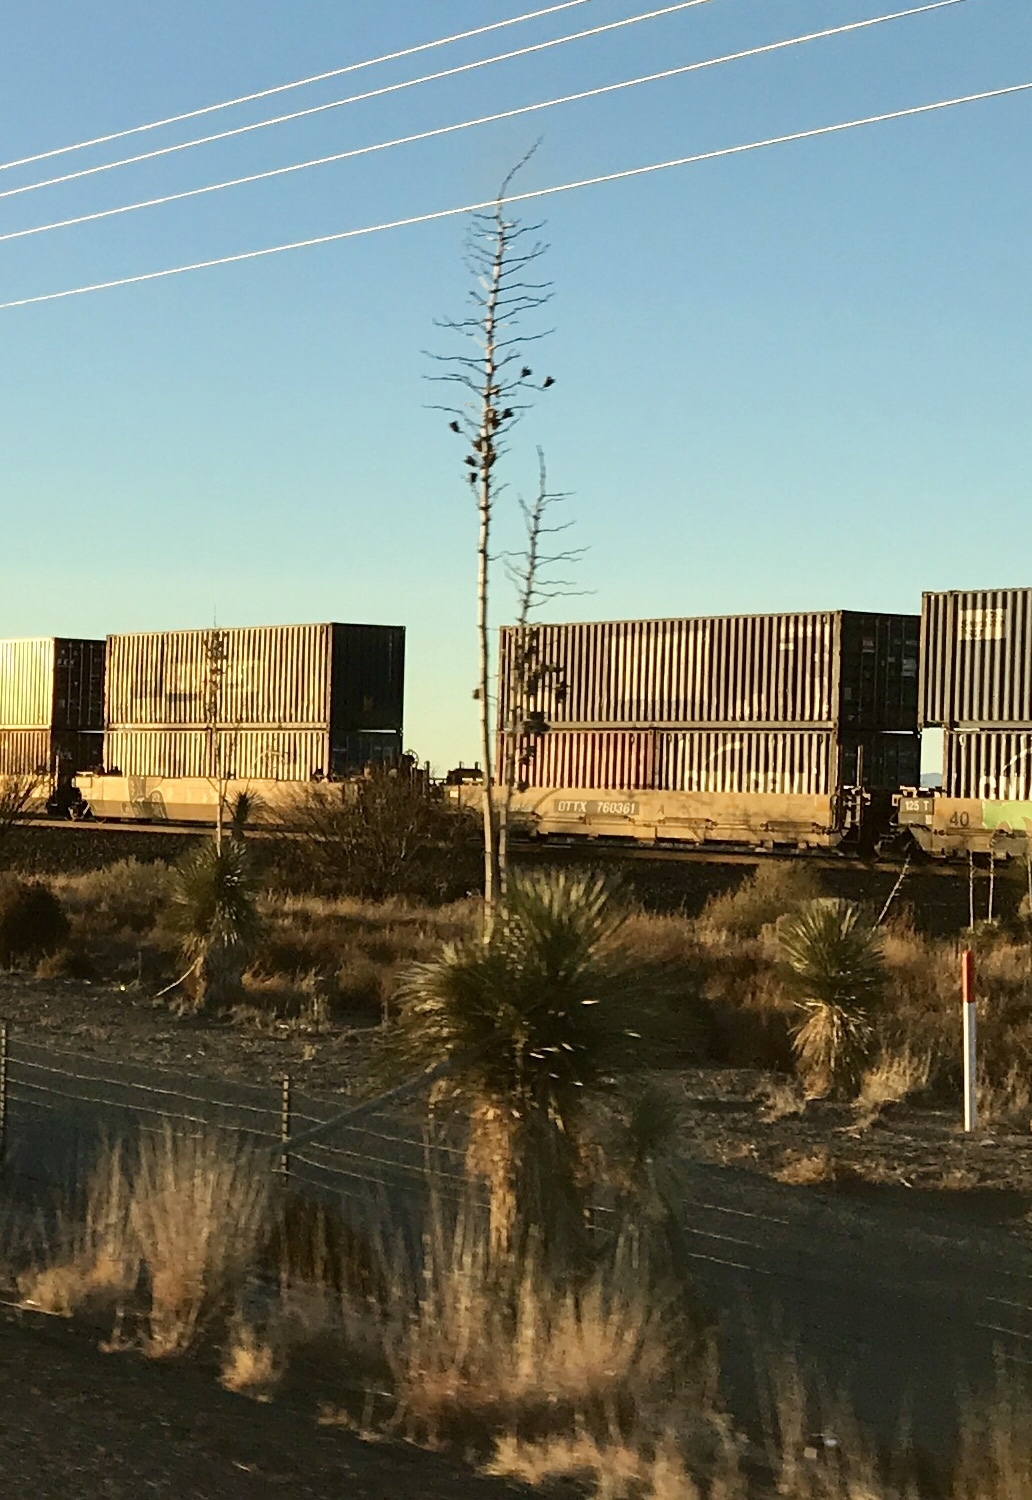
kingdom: Plantae
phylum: Tracheophyta
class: Liliopsida
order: Asparagales
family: Asparagaceae
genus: Yucca
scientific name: Yucca elata
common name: Palmella
